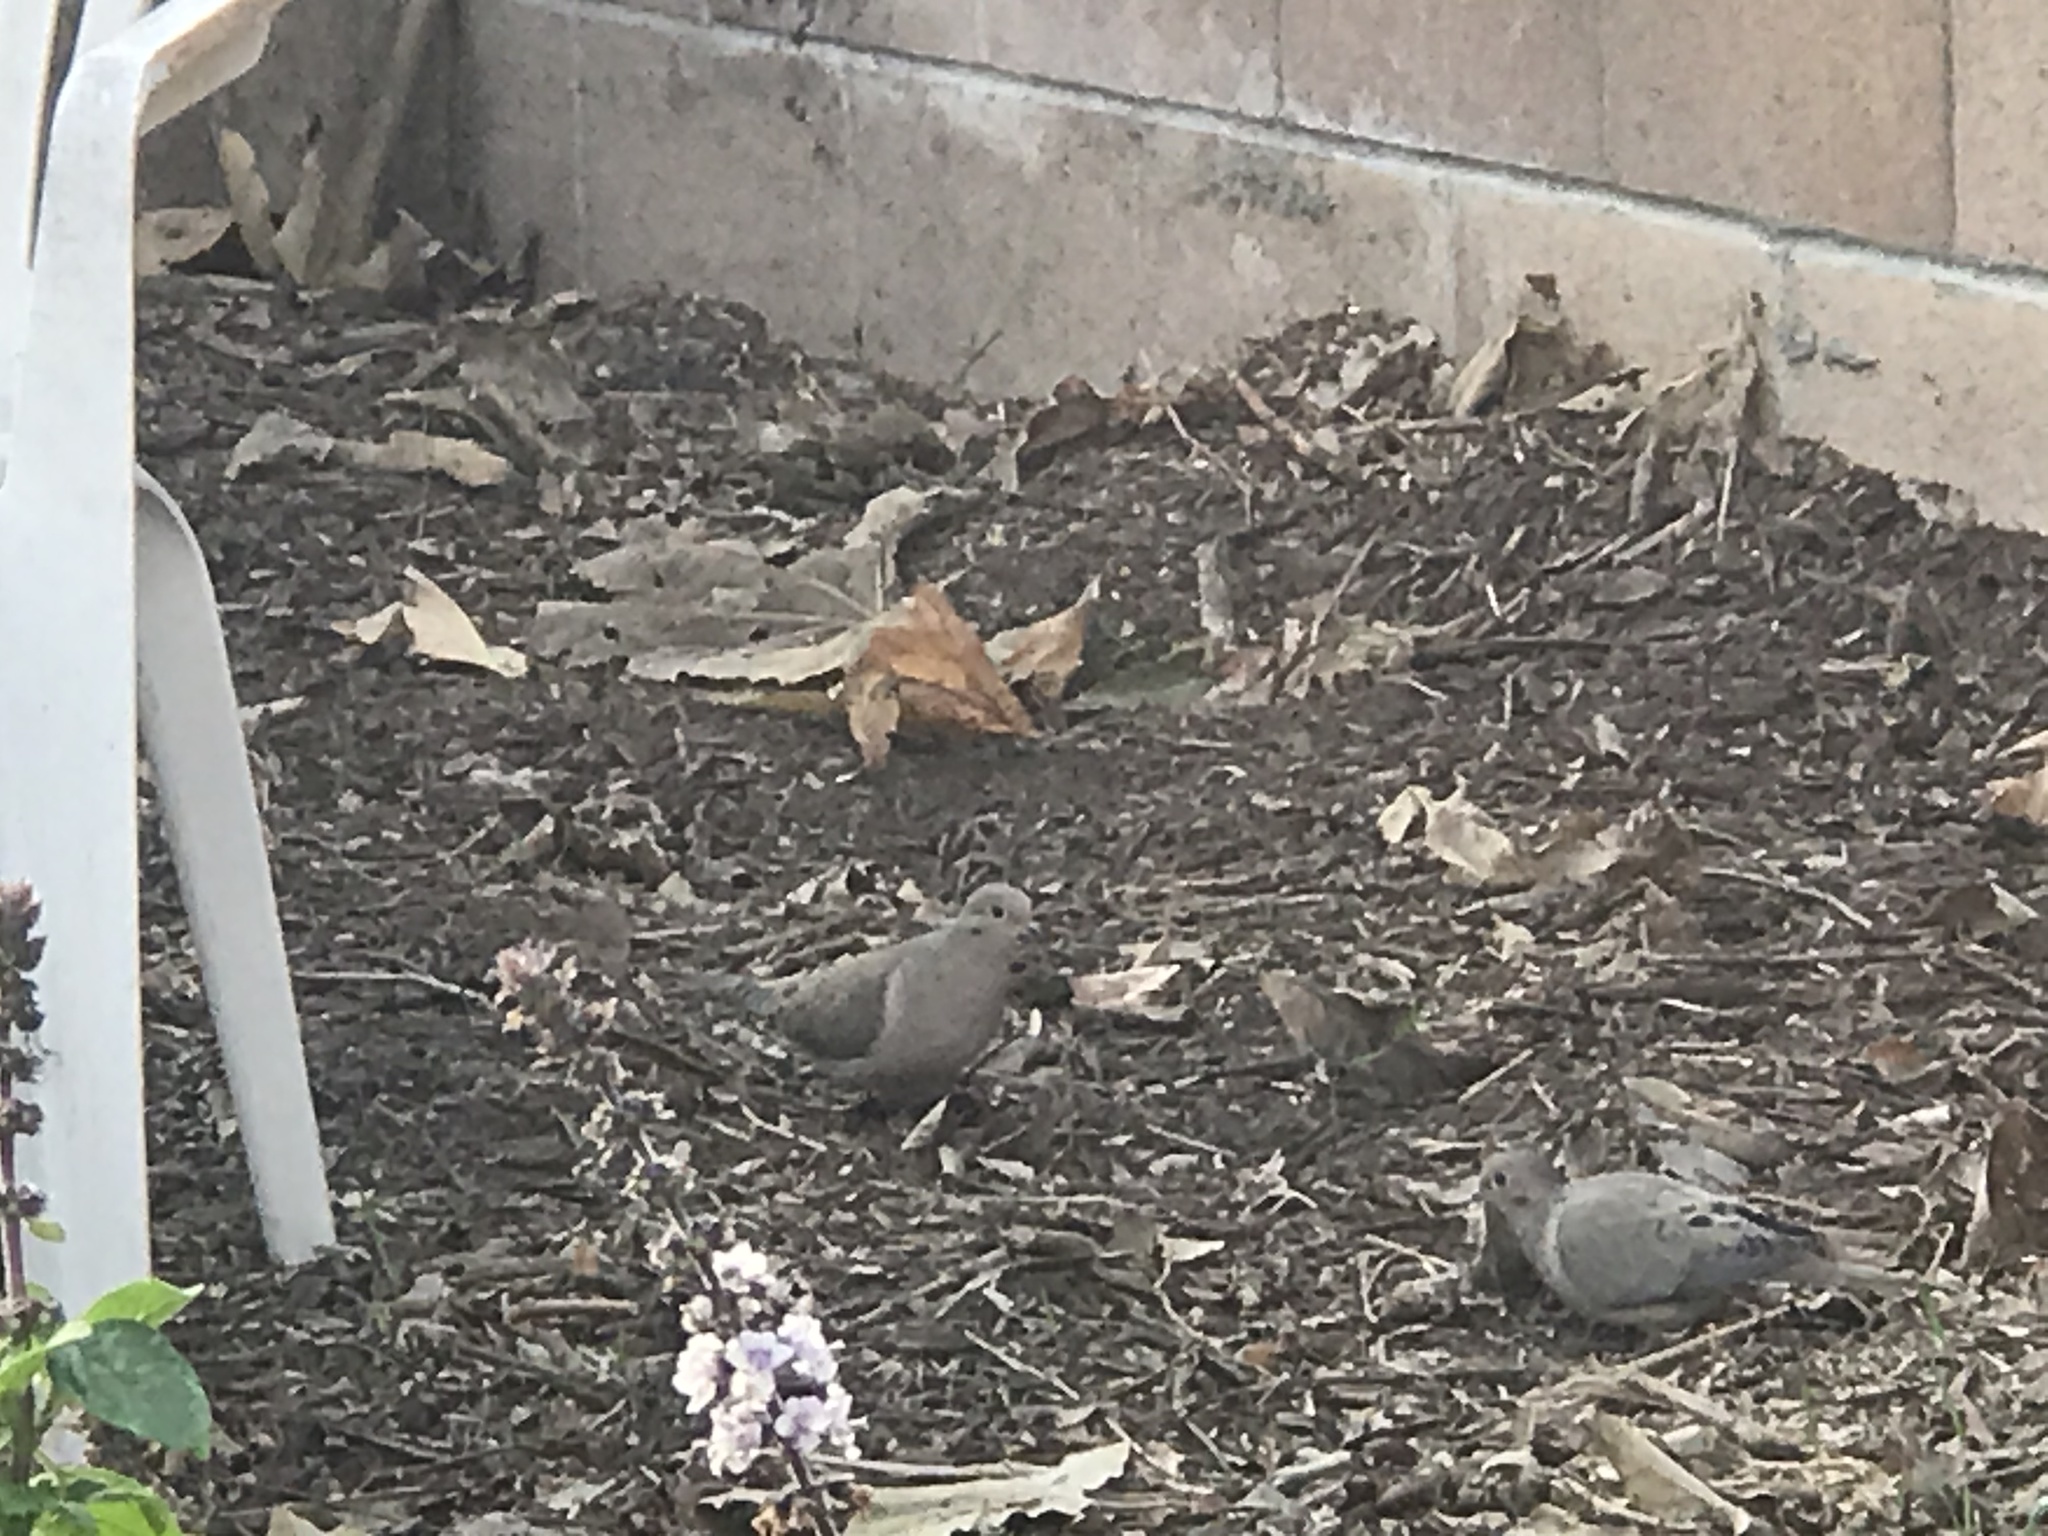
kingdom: Animalia
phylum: Chordata
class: Aves
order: Columbiformes
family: Columbidae
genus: Zenaida
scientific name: Zenaida macroura
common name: Mourning dove
